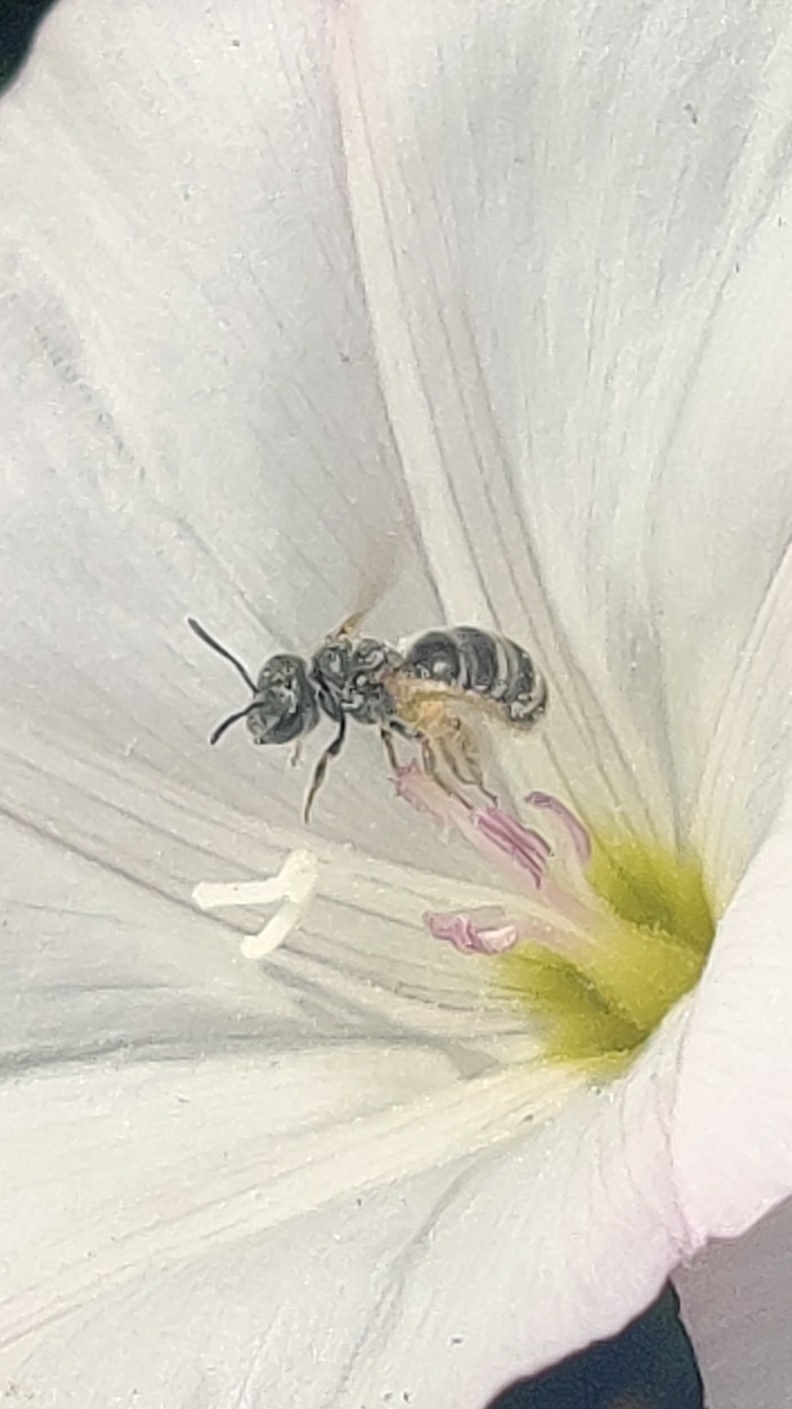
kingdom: Animalia
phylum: Arthropoda
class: Insecta
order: Hymenoptera
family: Halictidae
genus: Halictus
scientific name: Halictus tripartitus
